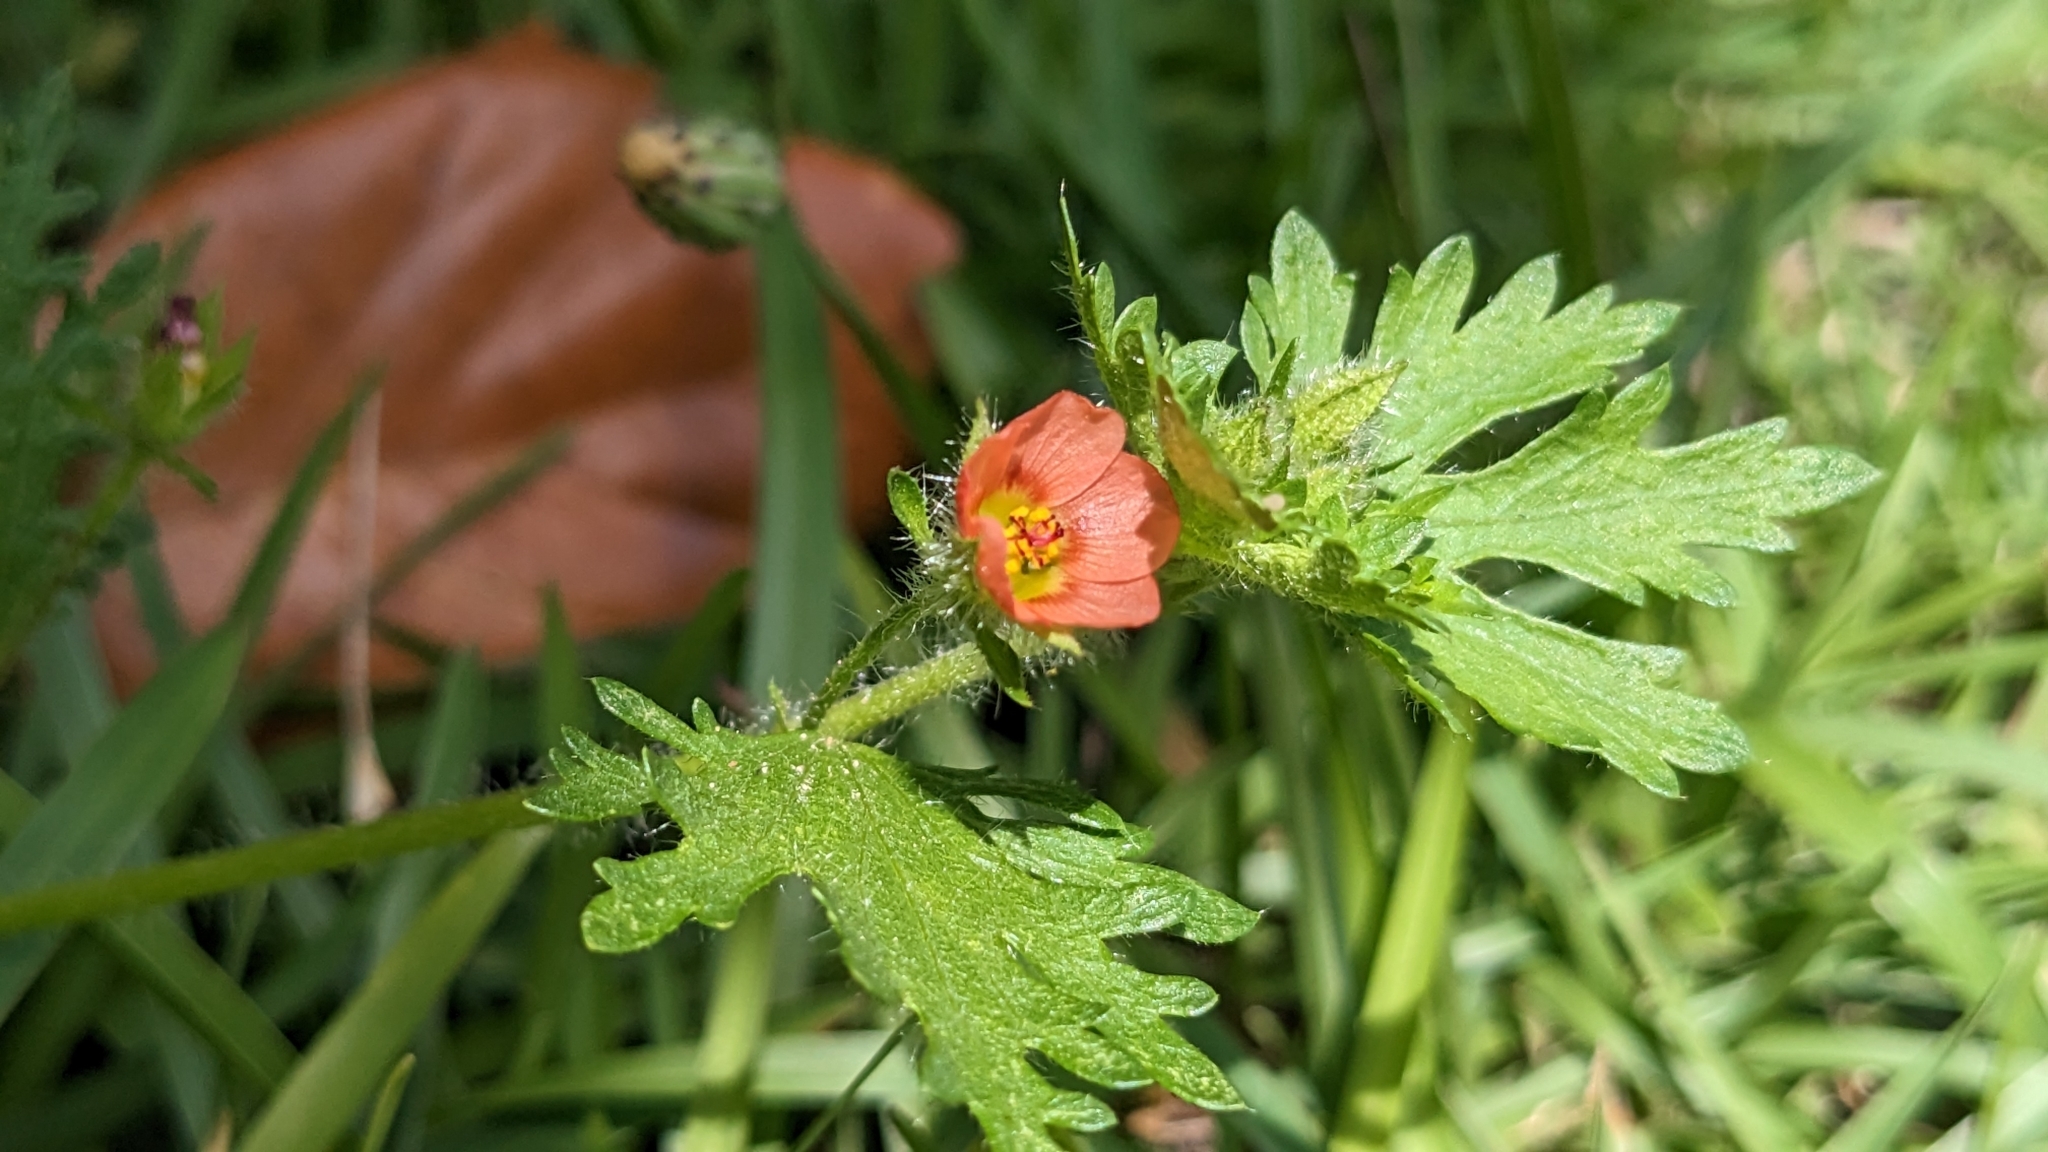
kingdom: Plantae
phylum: Tracheophyta
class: Magnoliopsida
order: Malvales
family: Malvaceae
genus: Modiola
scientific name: Modiola caroliniana
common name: Carolina bristlemallow
